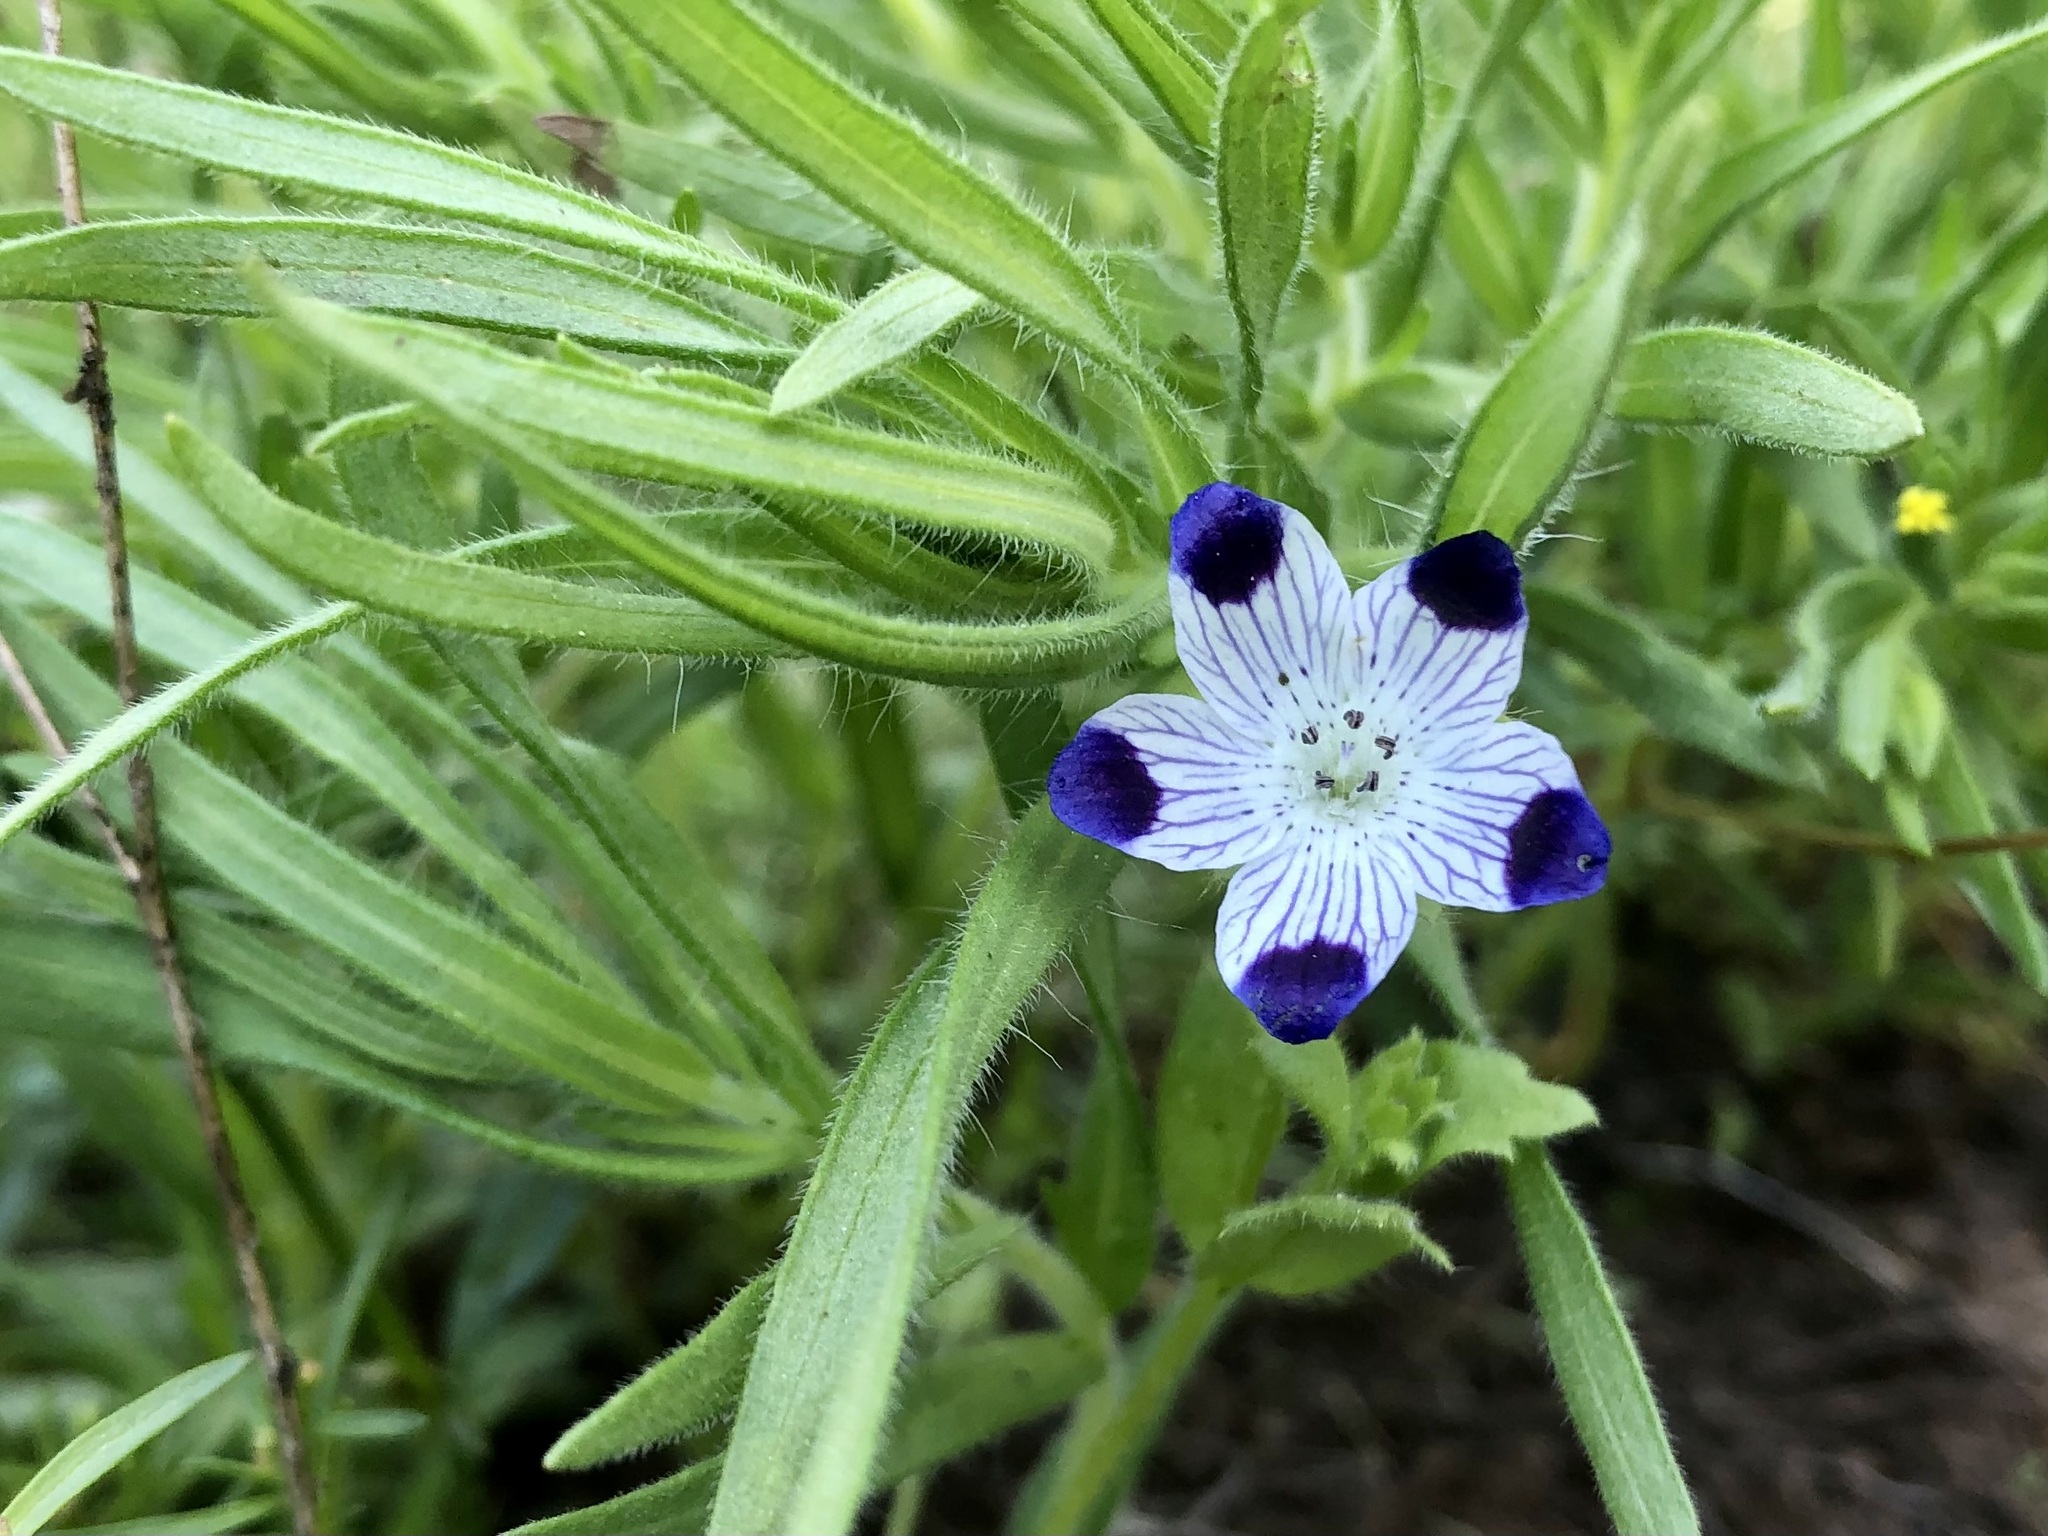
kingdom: Plantae
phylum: Tracheophyta
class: Magnoliopsida
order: Boraginales
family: Hydrophyllaceae
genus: Nemophila
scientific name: Nemophila maculata
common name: Fivespot
